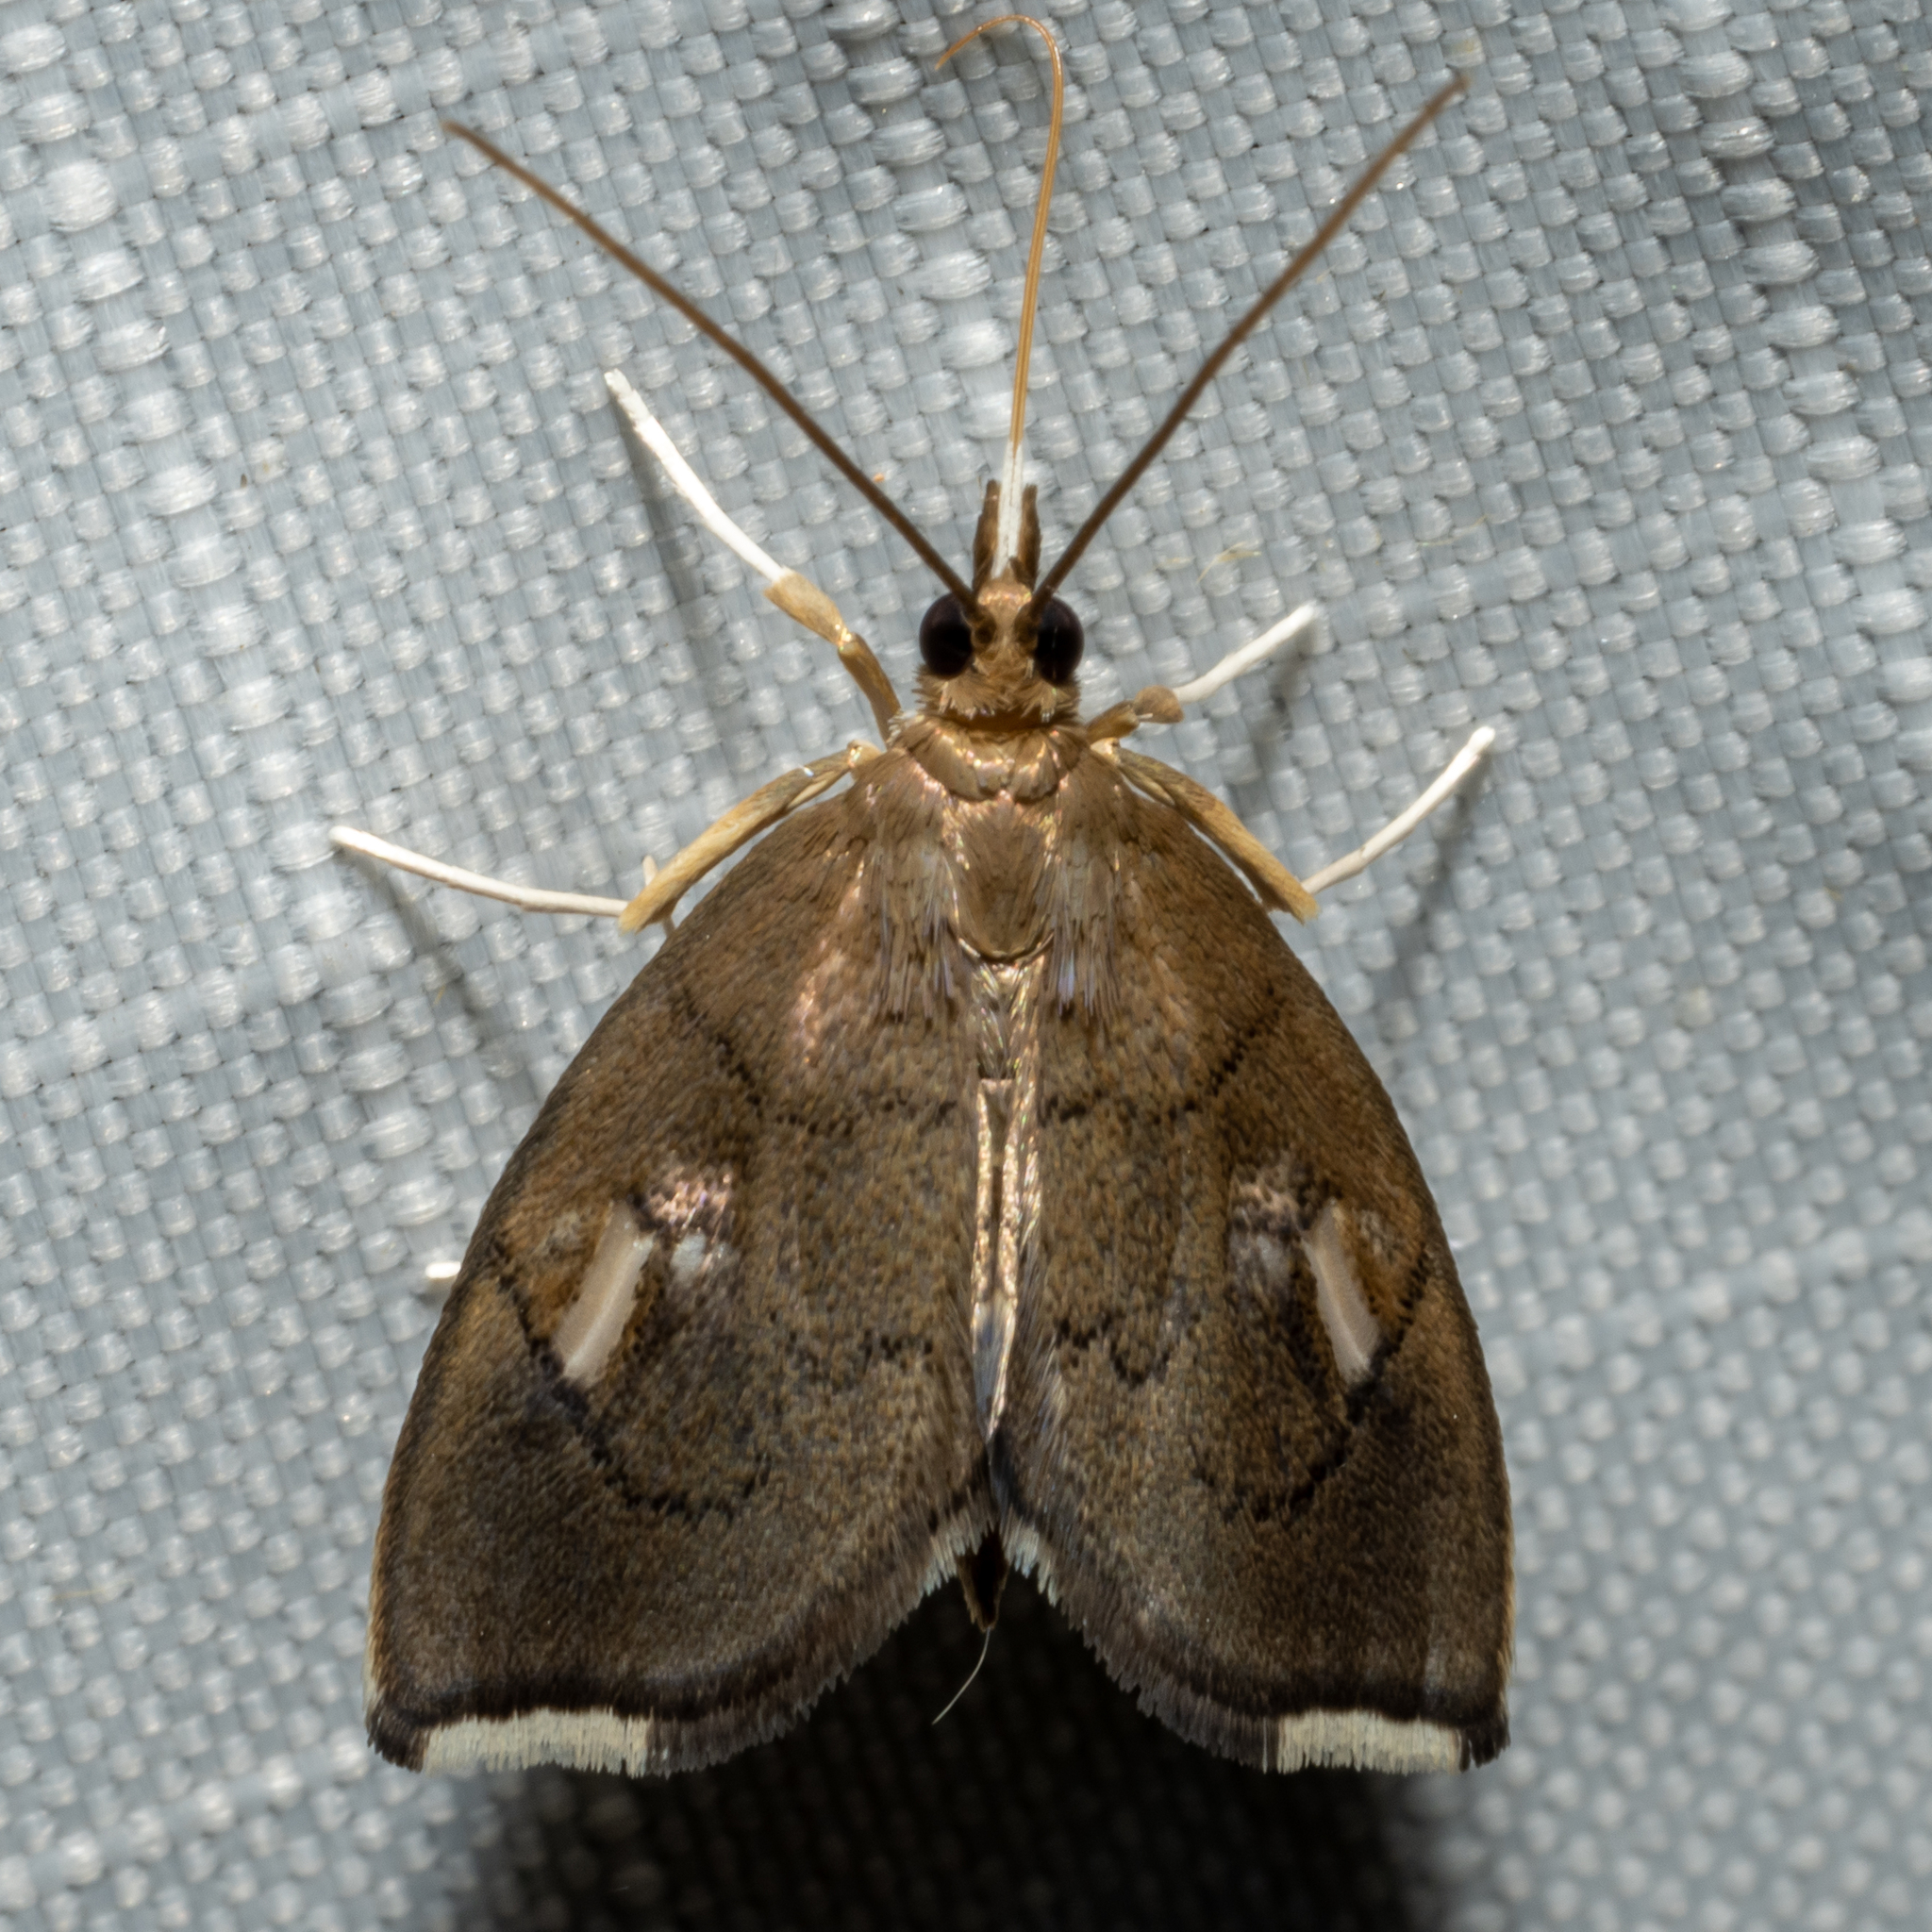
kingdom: Animalia
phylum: Arthropoda
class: Insecta
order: Lepidoptera
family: Crambidae
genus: Perispasta
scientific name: Perispasta caeculalis
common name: Titian peale's moth
